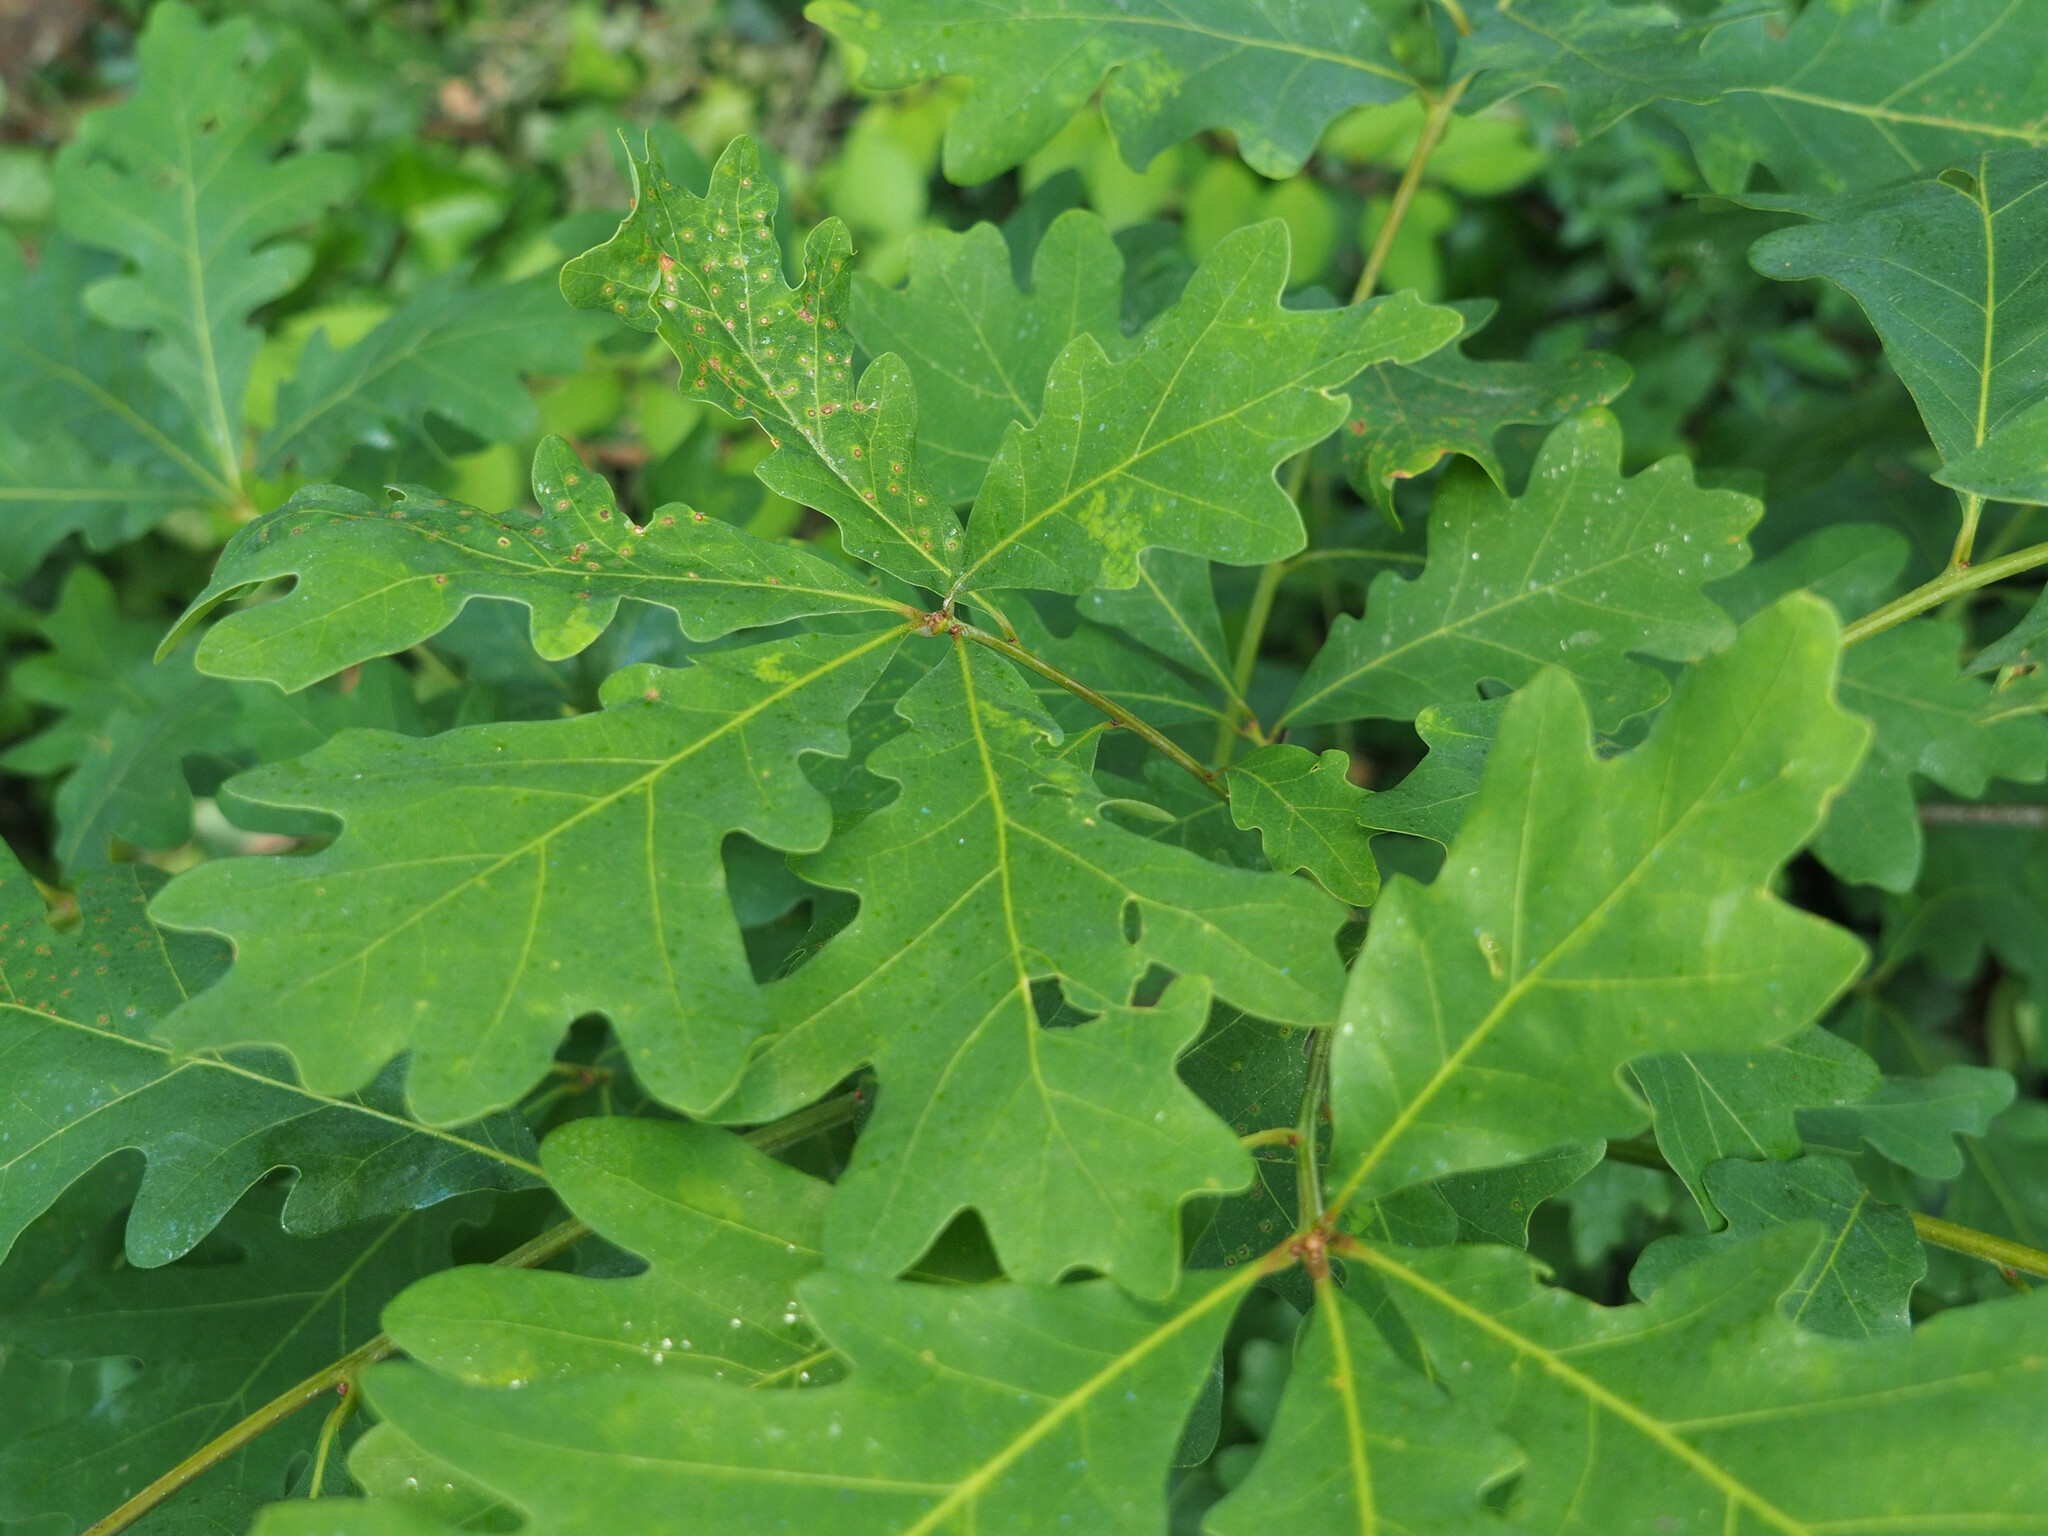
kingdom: Animalia
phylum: Arthropoda
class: Insecta
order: Hymenoptera
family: Cynipidae
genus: Neuroterus
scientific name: Neuroterus
